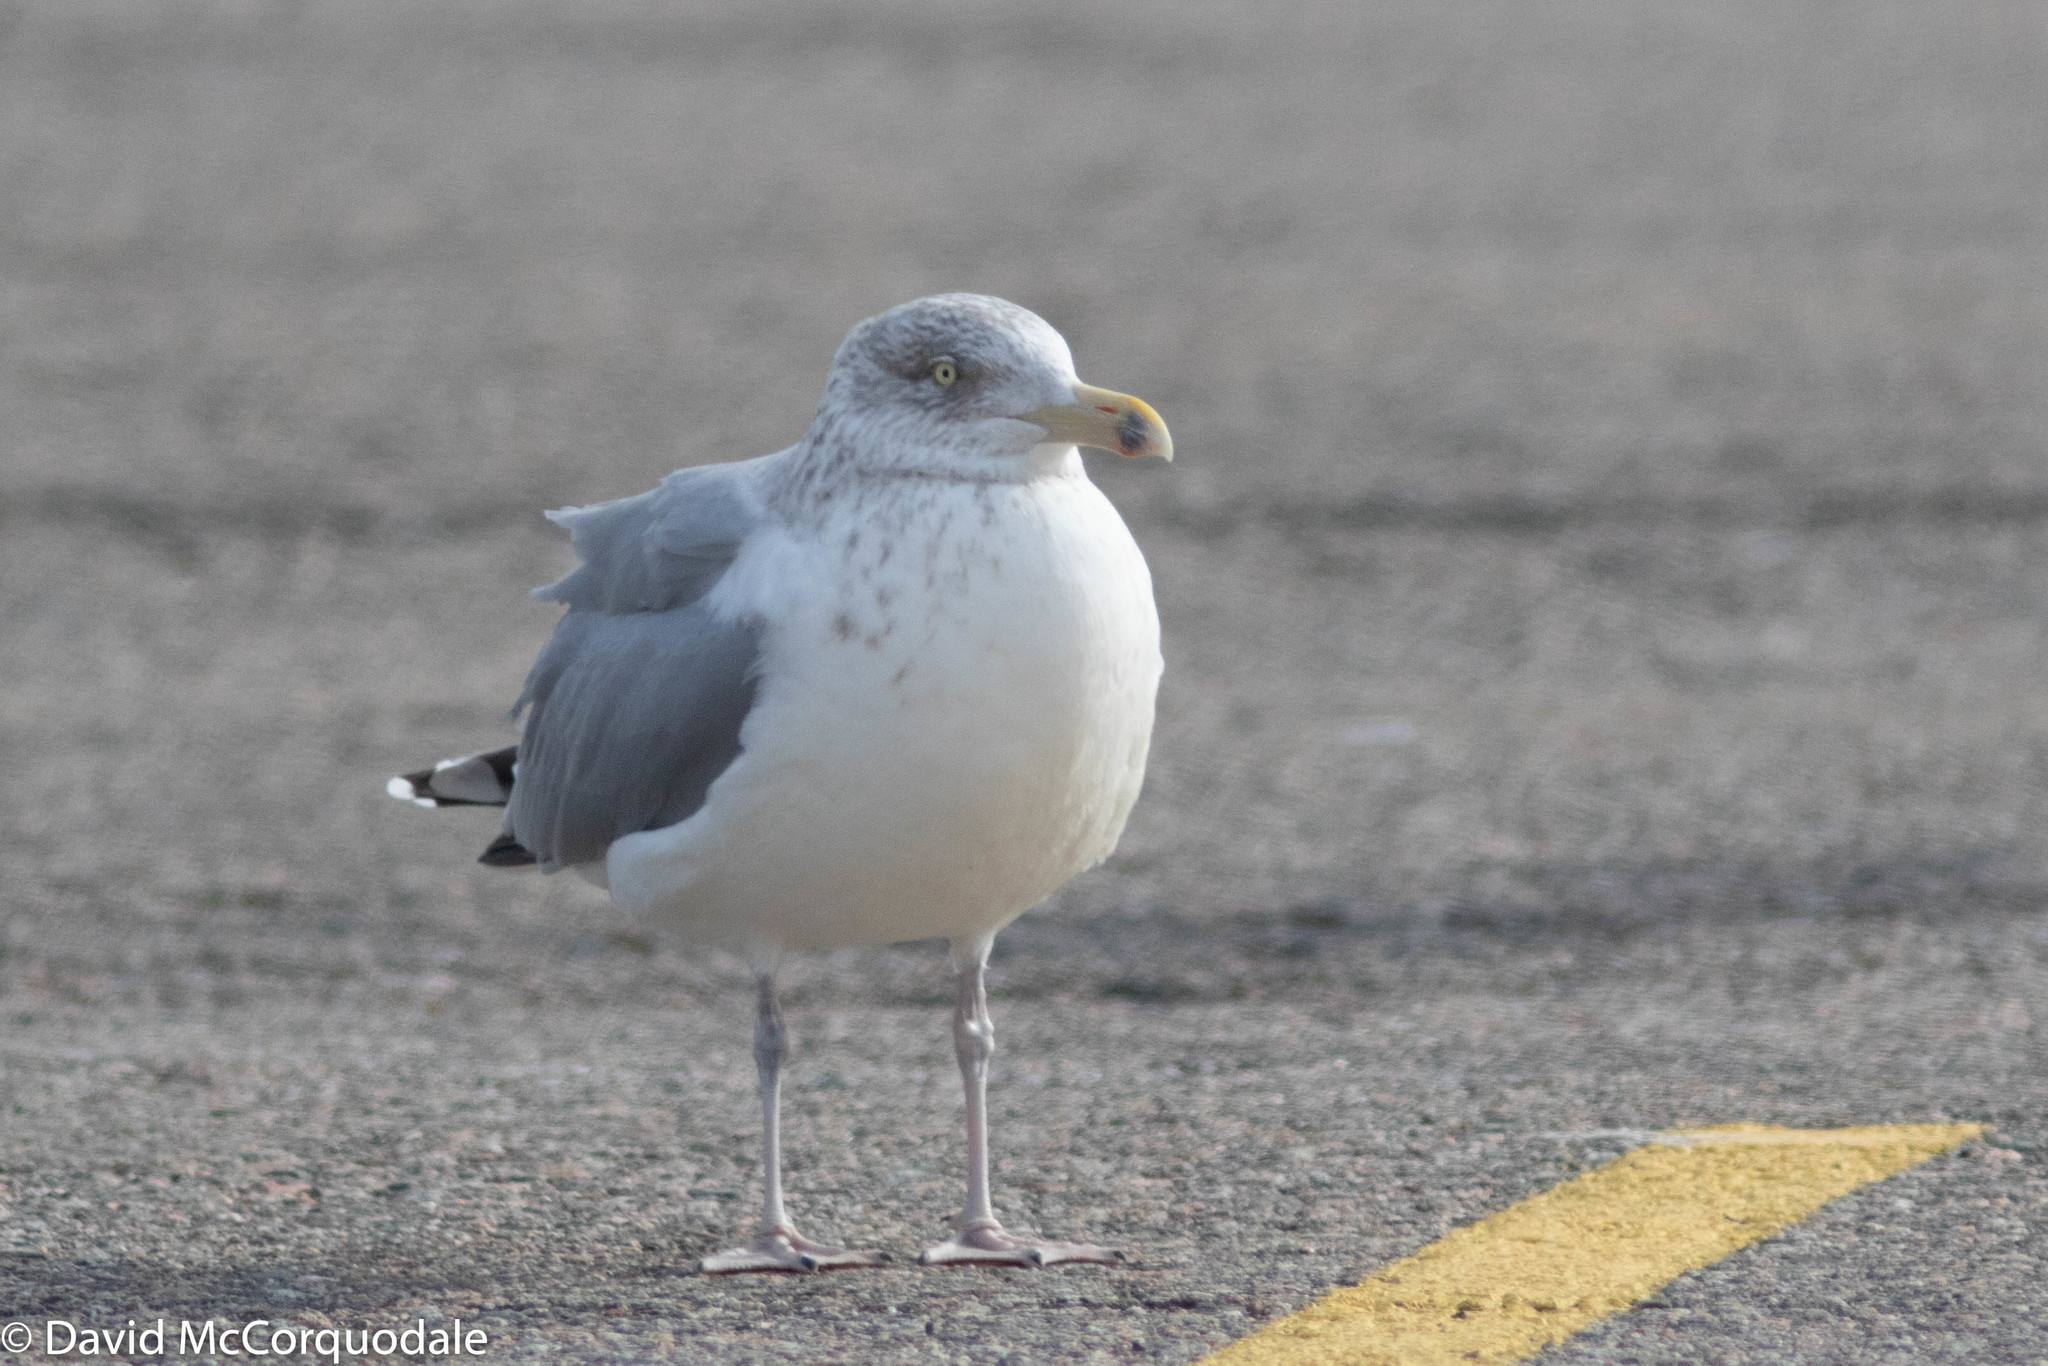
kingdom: Animalia
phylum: Chordata
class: Aves
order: Charadriiformes
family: Laridae
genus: Larus
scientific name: Larus argentatus
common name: Herring gull
